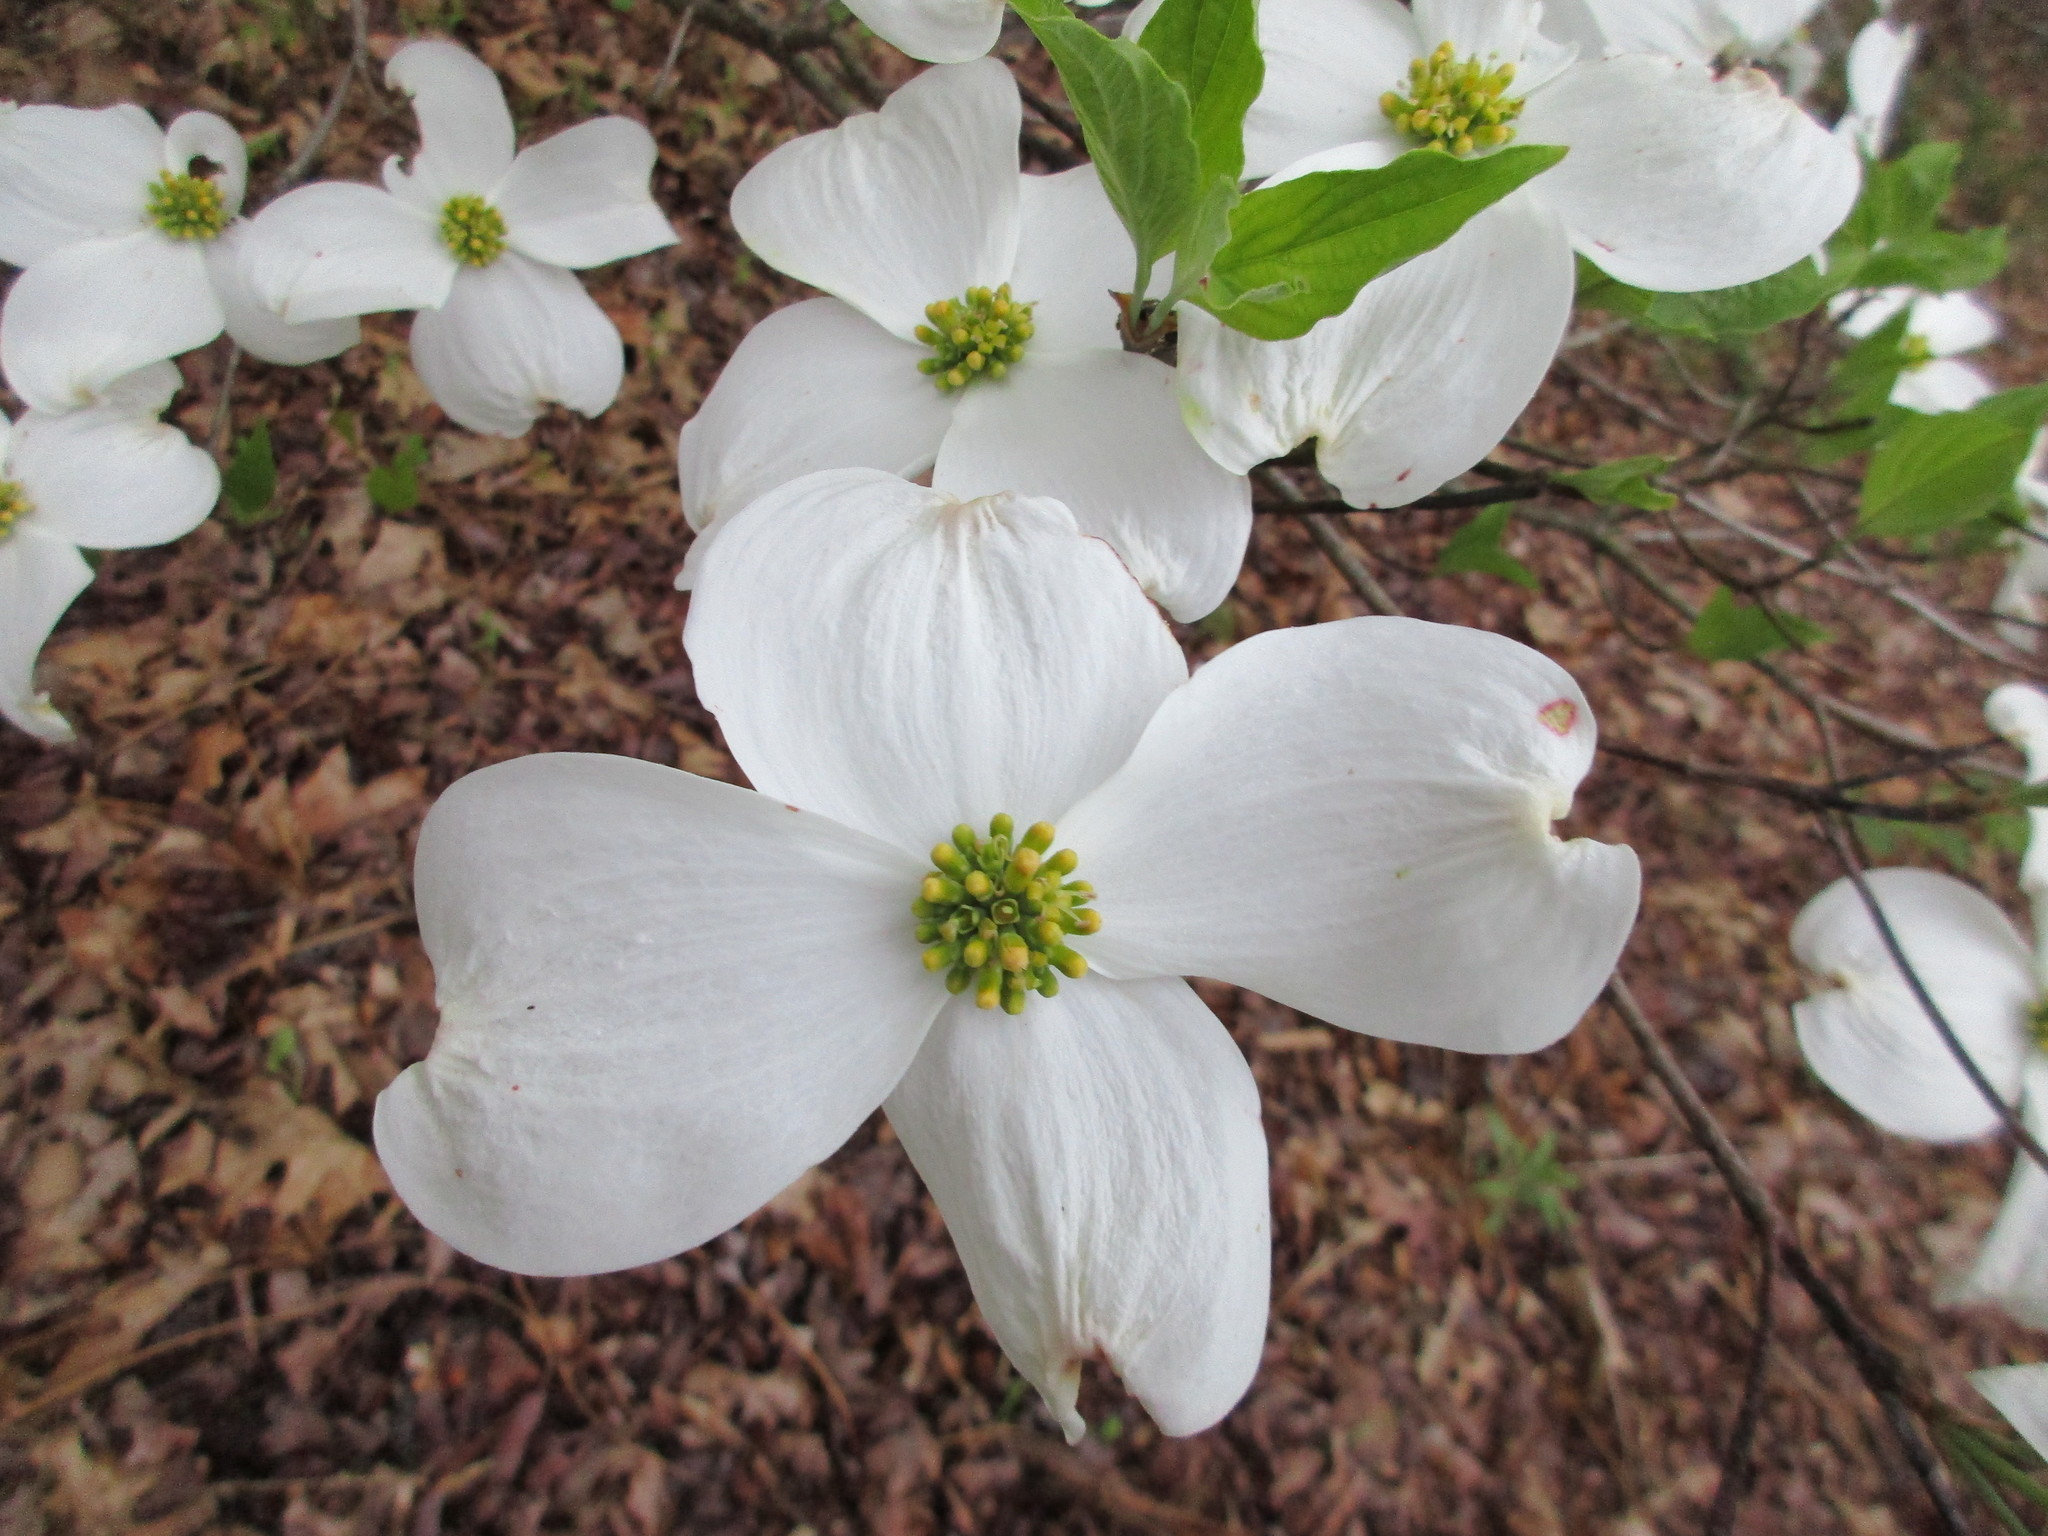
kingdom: Plantae
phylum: Tracheophyta
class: Magnoliopsida
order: Cornales
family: Cornaceae
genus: Cornus
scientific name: Cornus florida
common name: Flowering dogwood
